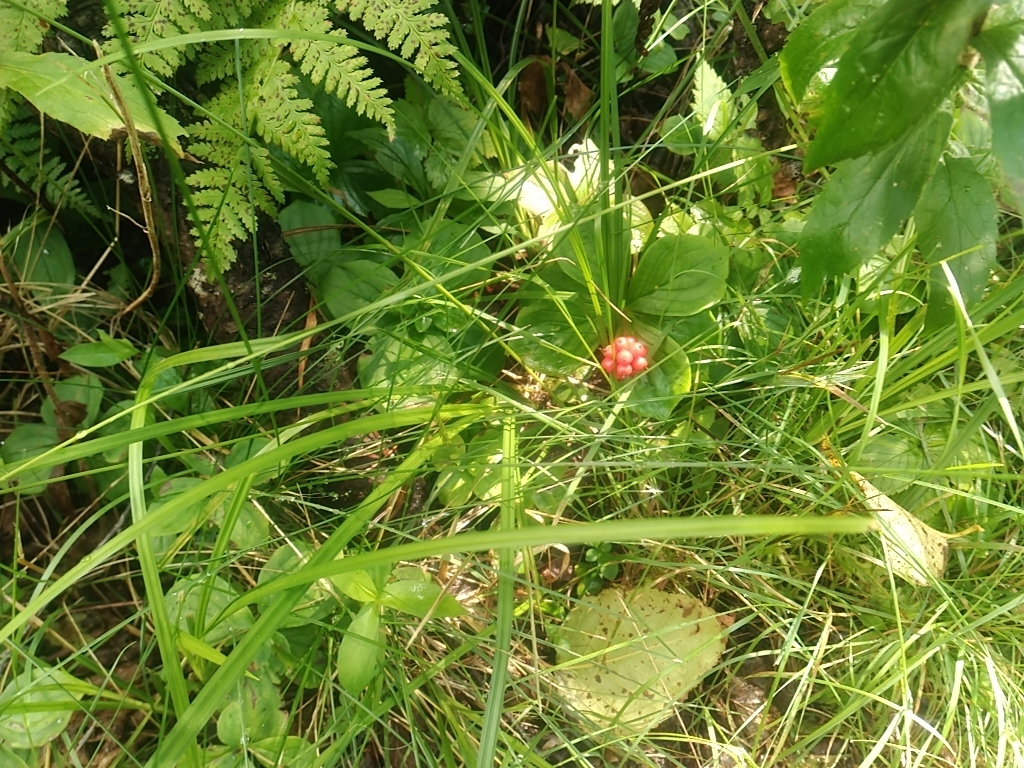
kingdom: Plantae
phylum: Tracheophyta
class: Magnoliopsida
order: Cornales
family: Cornaceae
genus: Cornus
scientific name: Cornus canadensis
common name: Creeping dogwood
